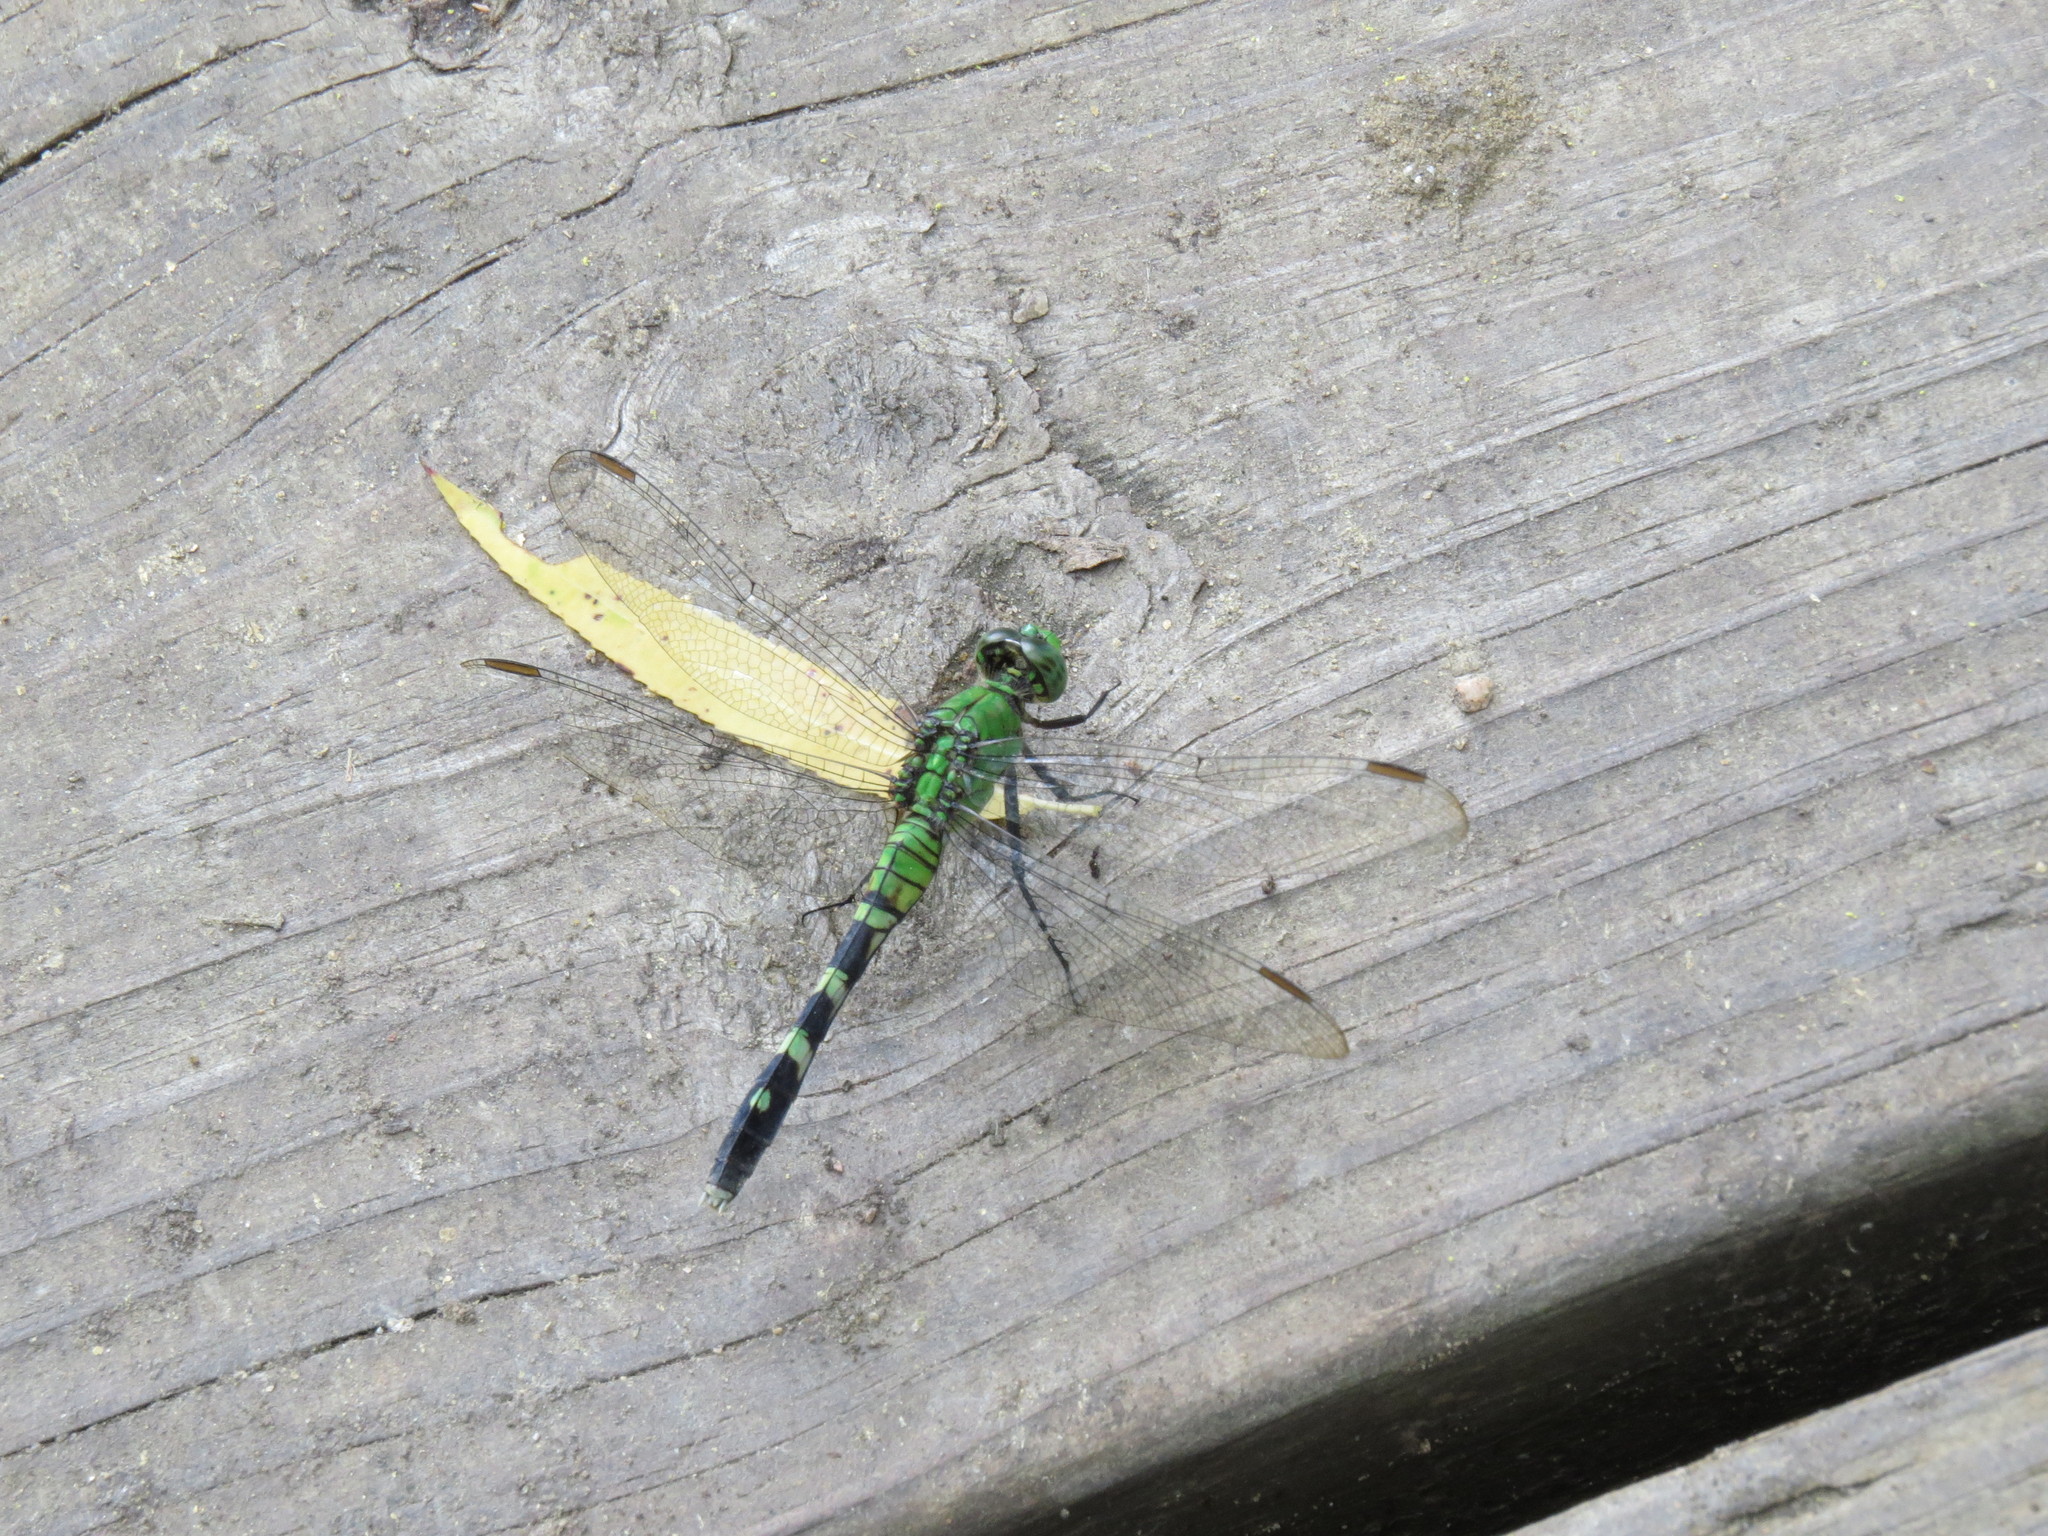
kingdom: Animalia
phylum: Arthropoda
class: Insecta
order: Odonata
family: Libellulidae
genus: Erythemis
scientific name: Erythemis simplicicollis
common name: Eastern pondhawk
